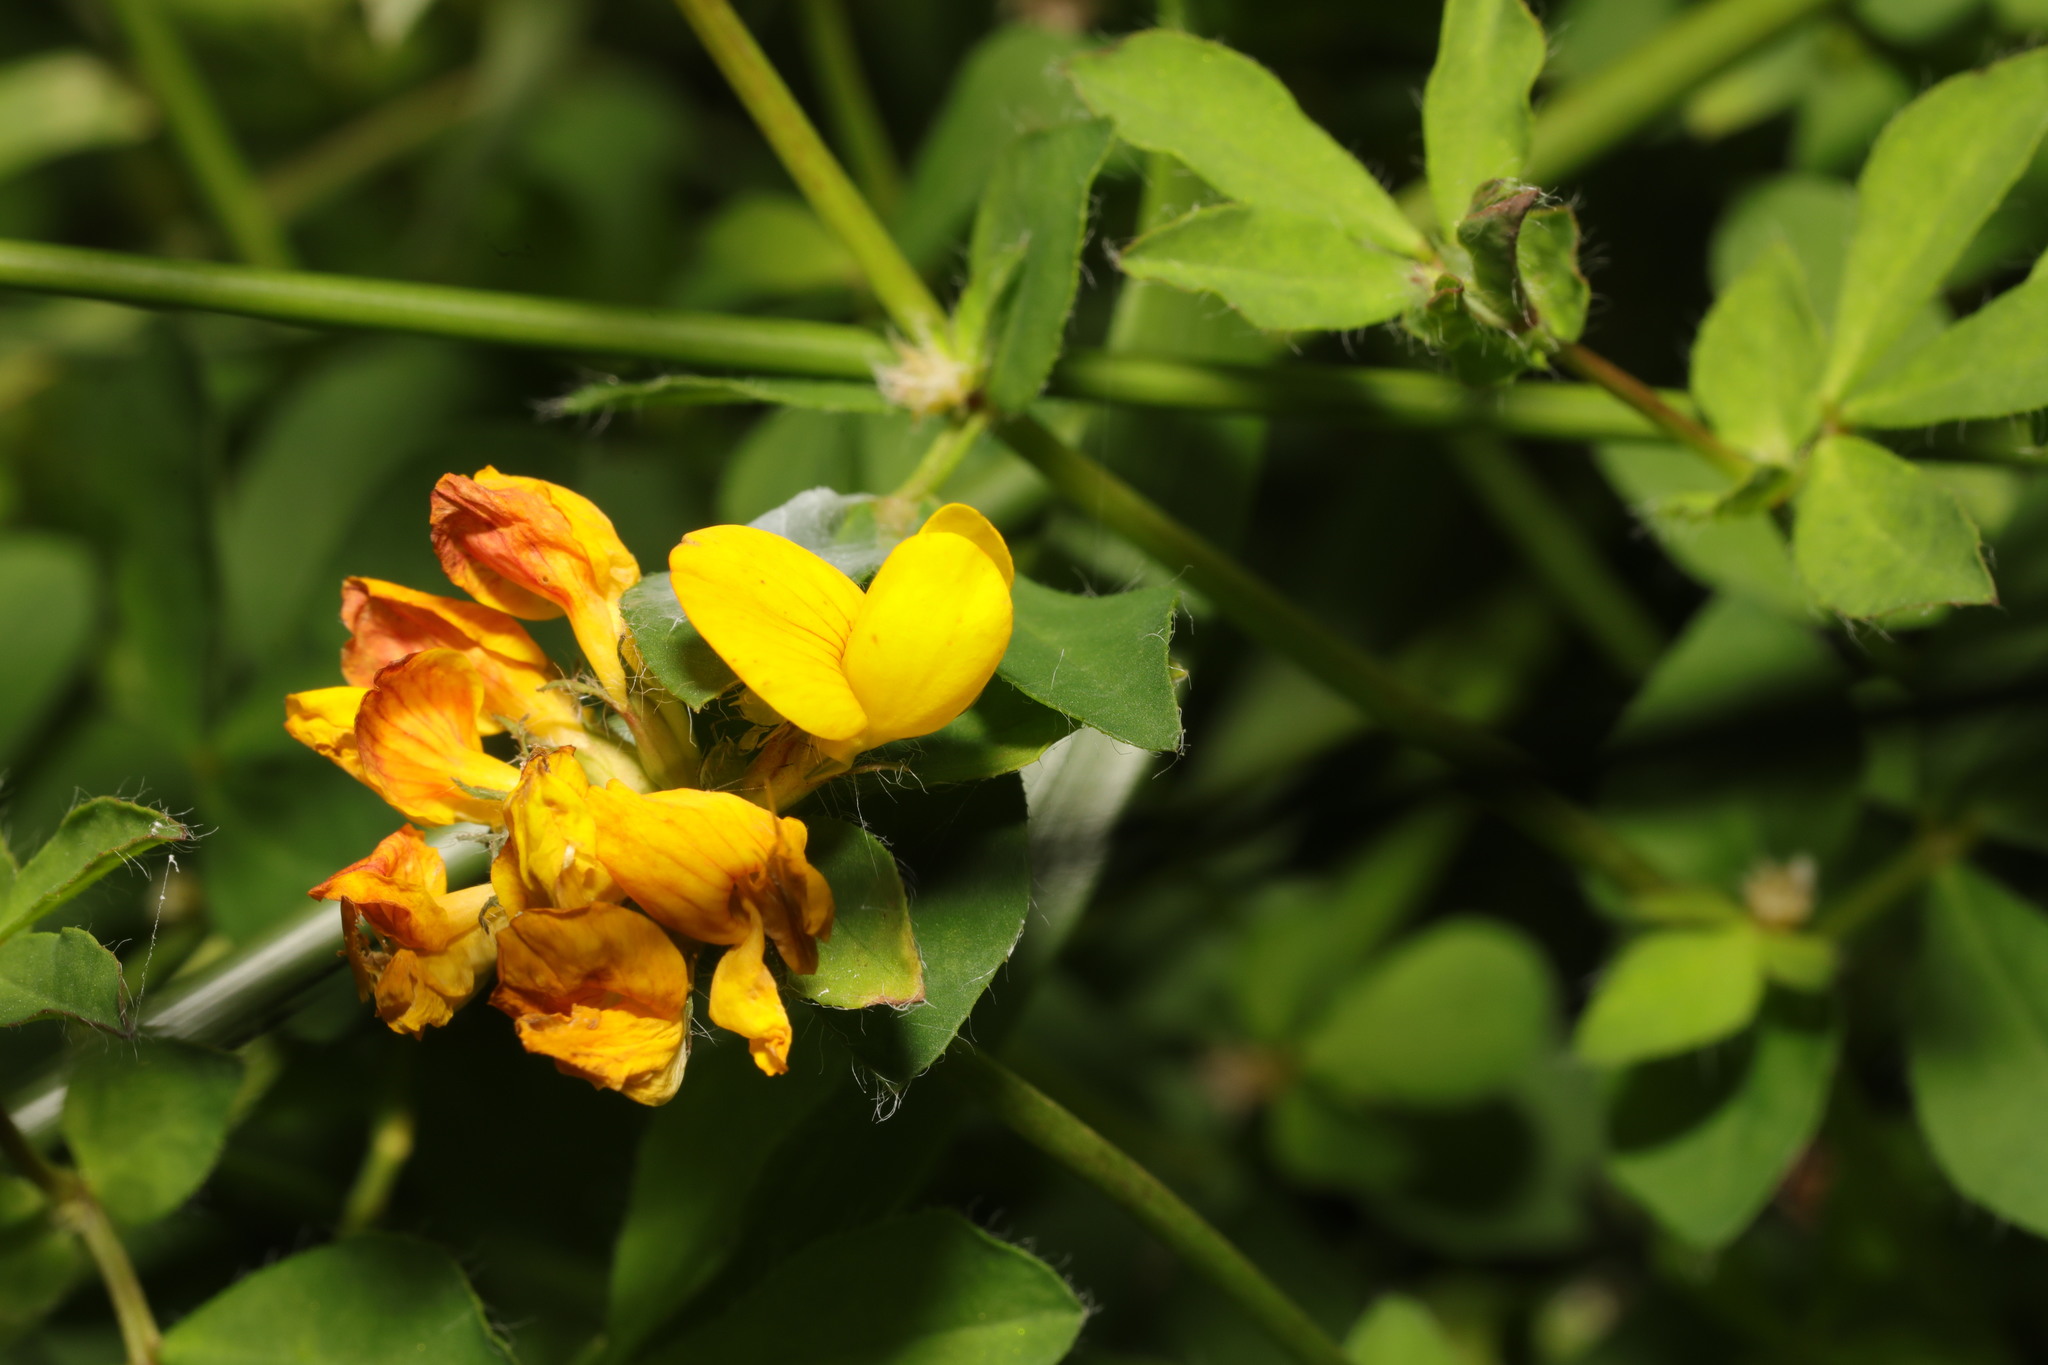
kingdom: Plantae
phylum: Tracheophyta
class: Magnoliopsida
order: Fabales
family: Fabaceae
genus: Lotus
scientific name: Lotus pedunculatus
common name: Greater birdsfoot-trefoil
